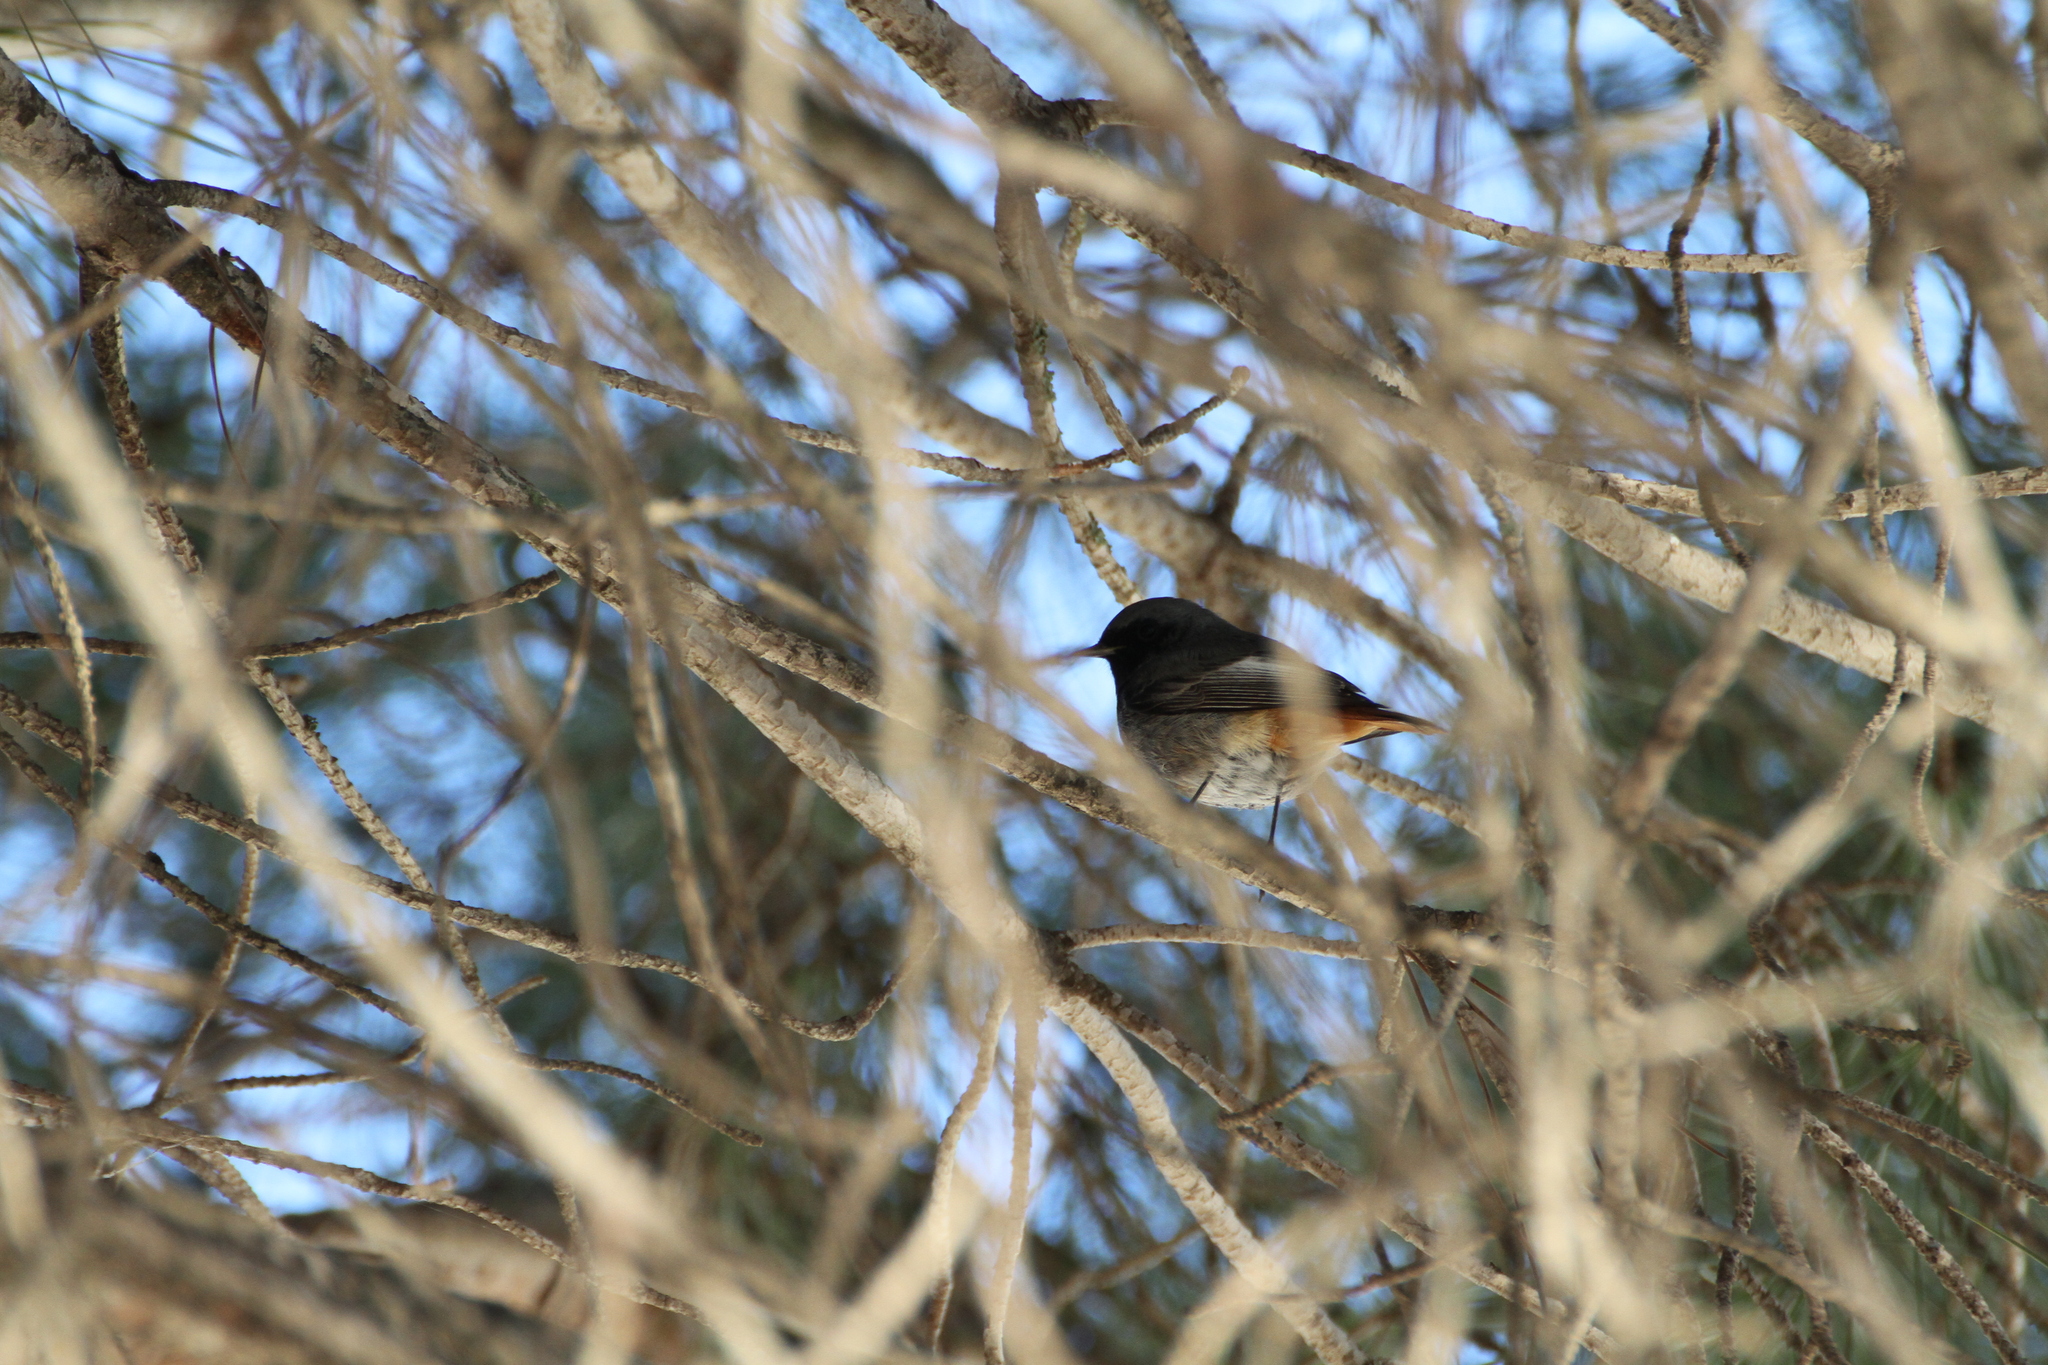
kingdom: Animalia
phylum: Chordata
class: Aves
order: Passeriformes
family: Muscicapidae
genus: Phoenicurus
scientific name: Phoenicurus ochruros
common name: Black redstart
